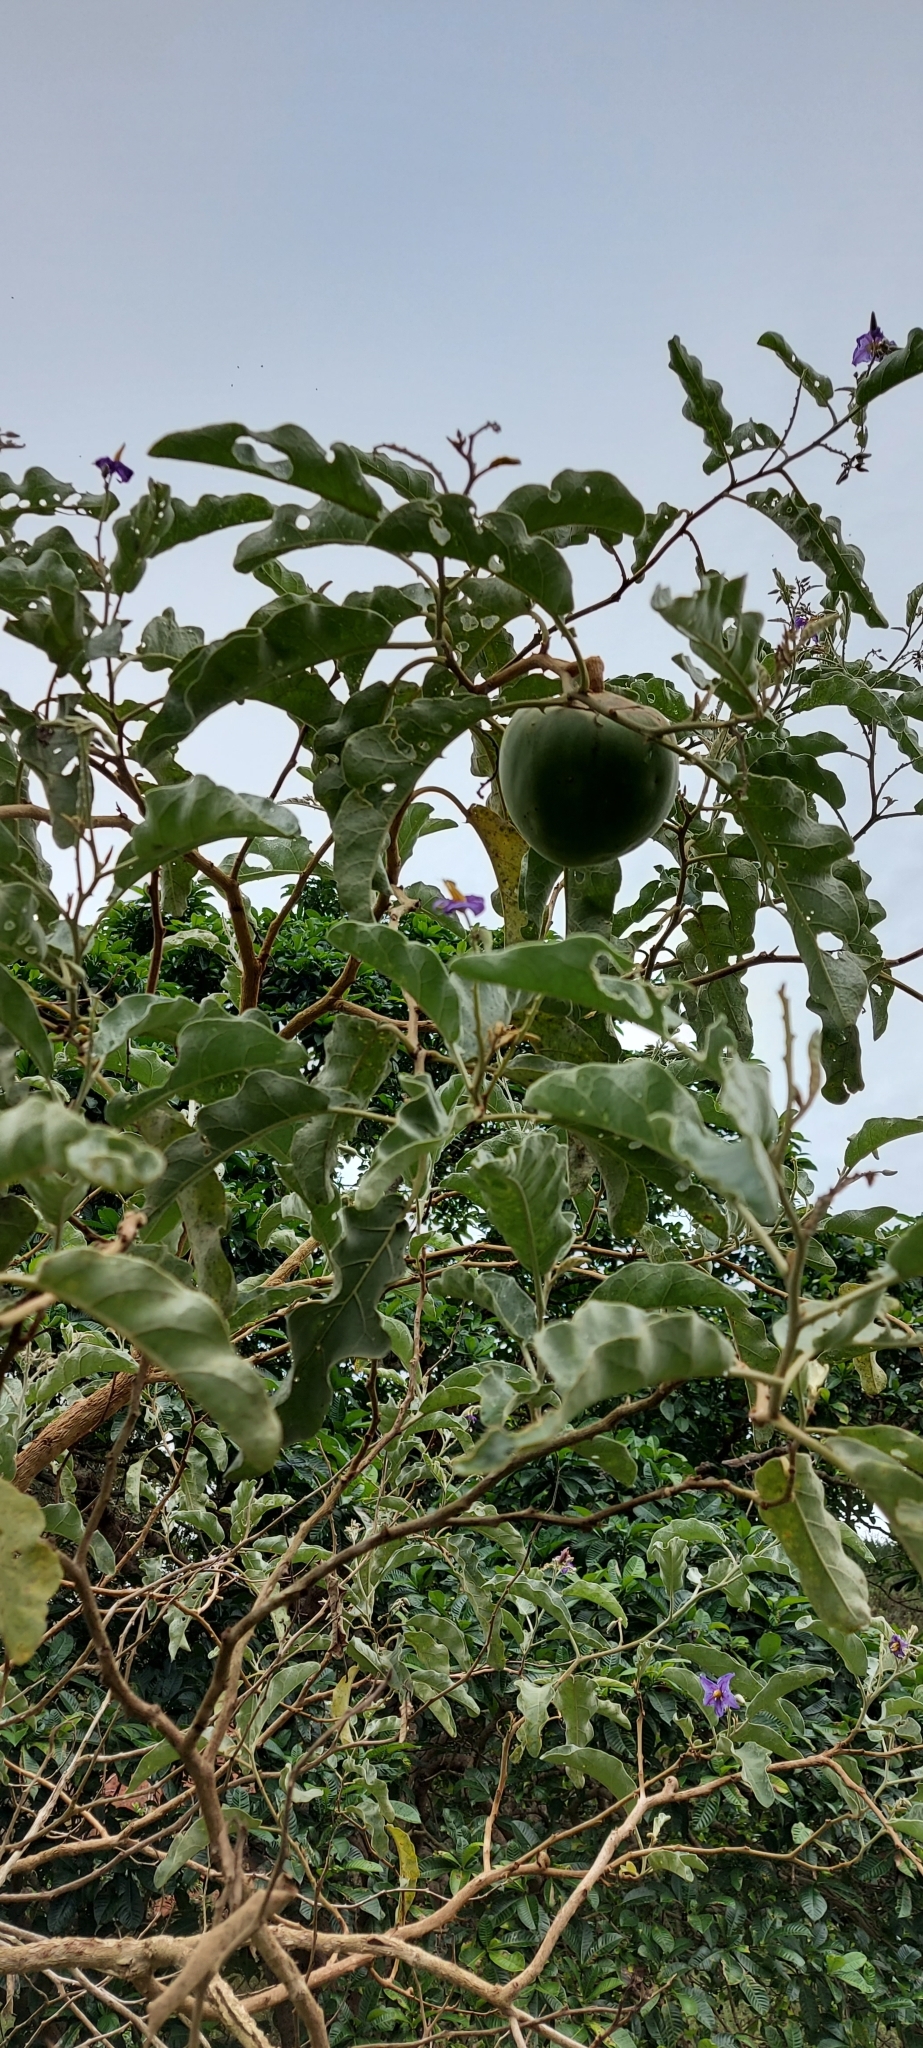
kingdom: Plantae
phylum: Tracheophyta
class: Magnoliopsida
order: Solanales
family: Solanaceae
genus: Solanum
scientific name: Solanum lycocarpum
